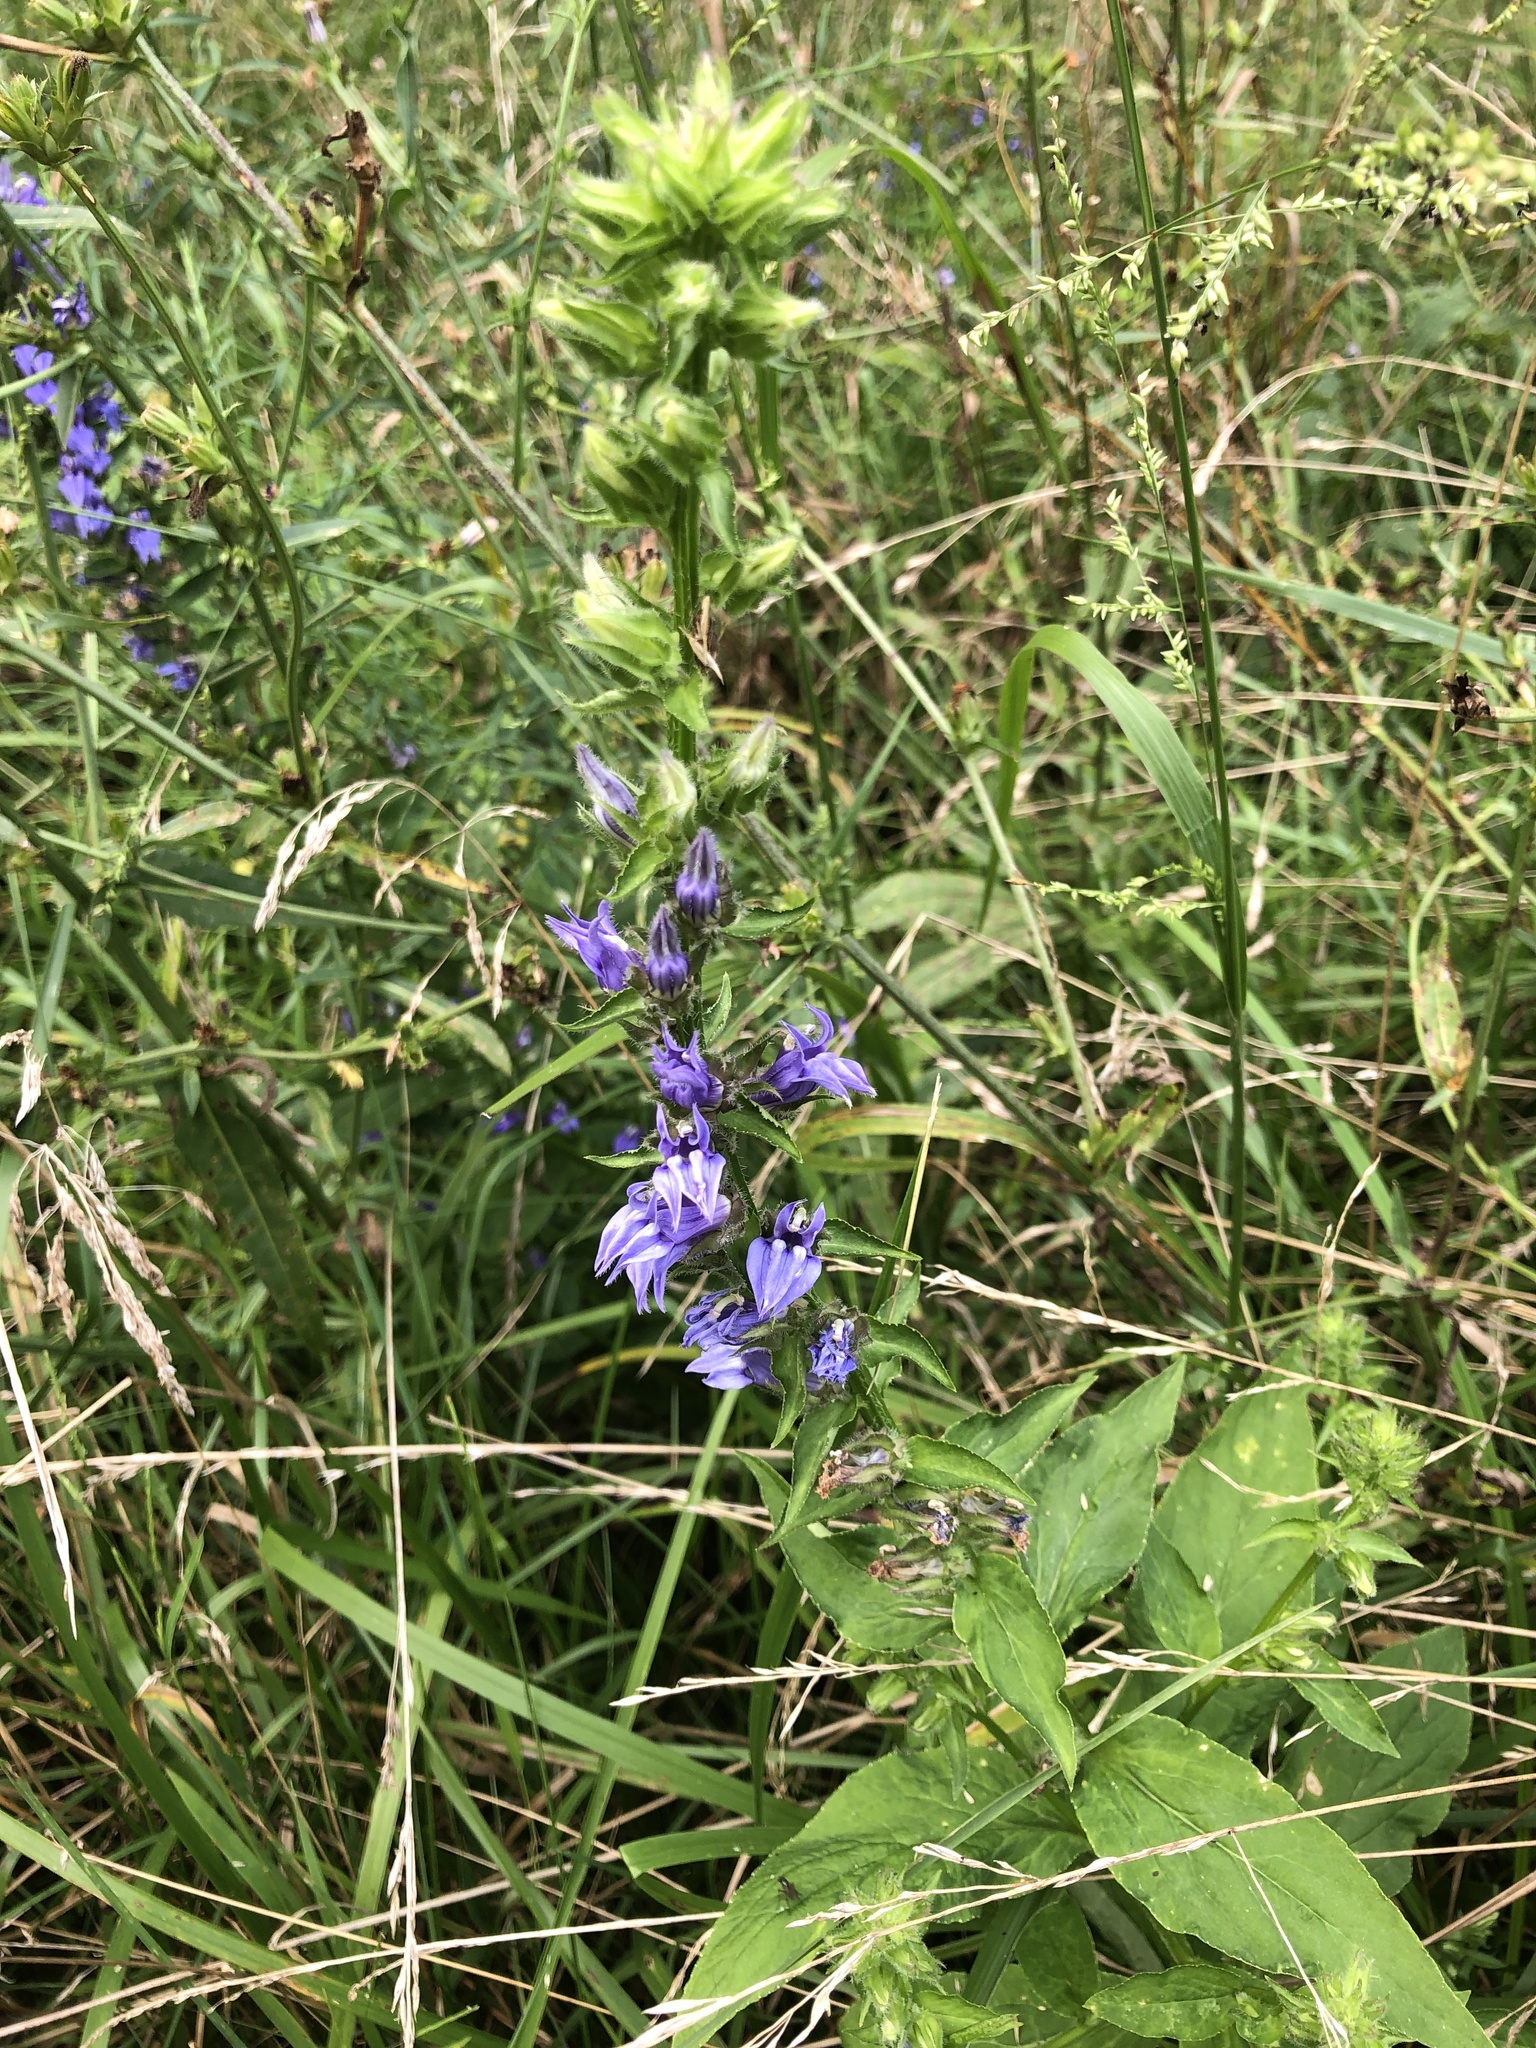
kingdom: Plantae
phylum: Tracheophyta
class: Magnoliopsida
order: Asterales
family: Campanulaceae
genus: Lobelia
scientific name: Lobelia siphilitica
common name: Great lobelia
